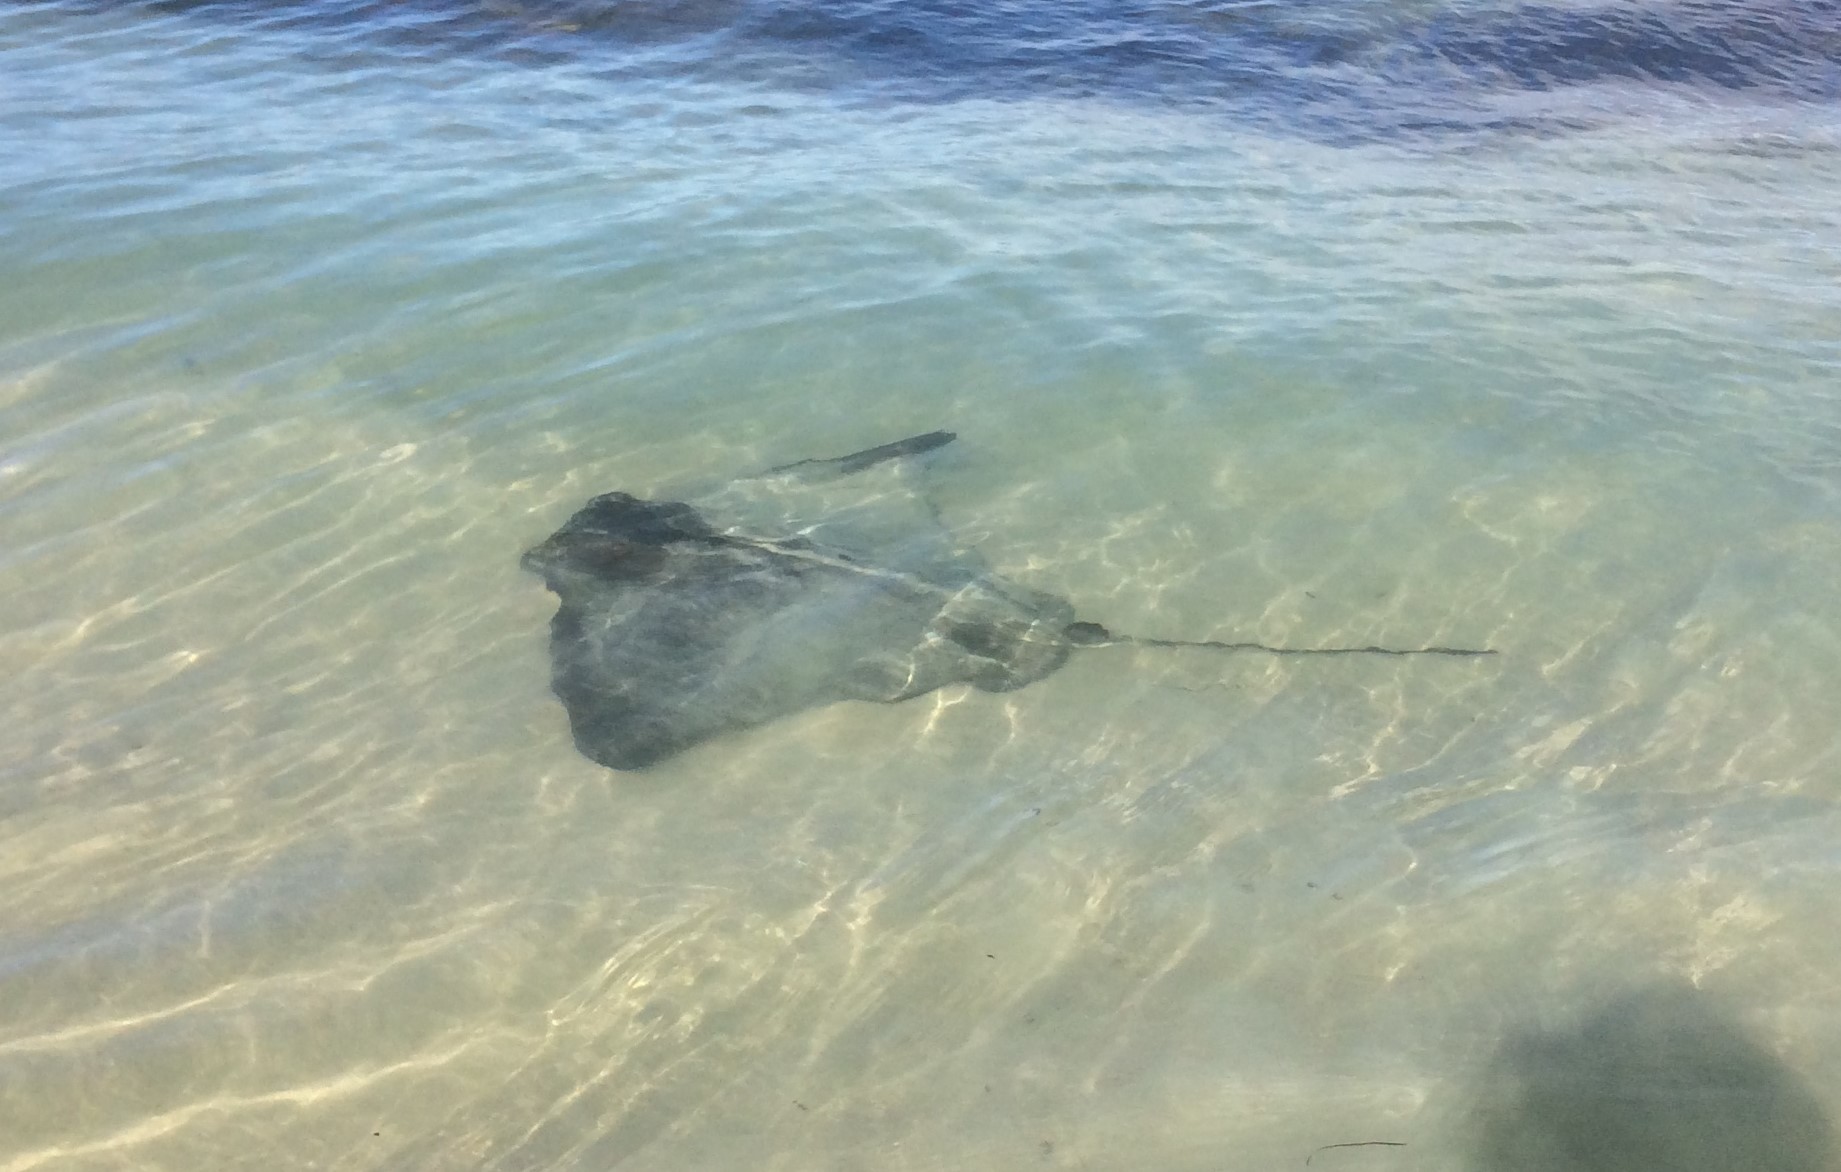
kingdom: Animalia
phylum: Chordata
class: Elasmobranchii
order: Myliobatiformes
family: Myliobatidae
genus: Myliobatis
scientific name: Myliobatis tenuicaudatus
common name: Eagle ray
